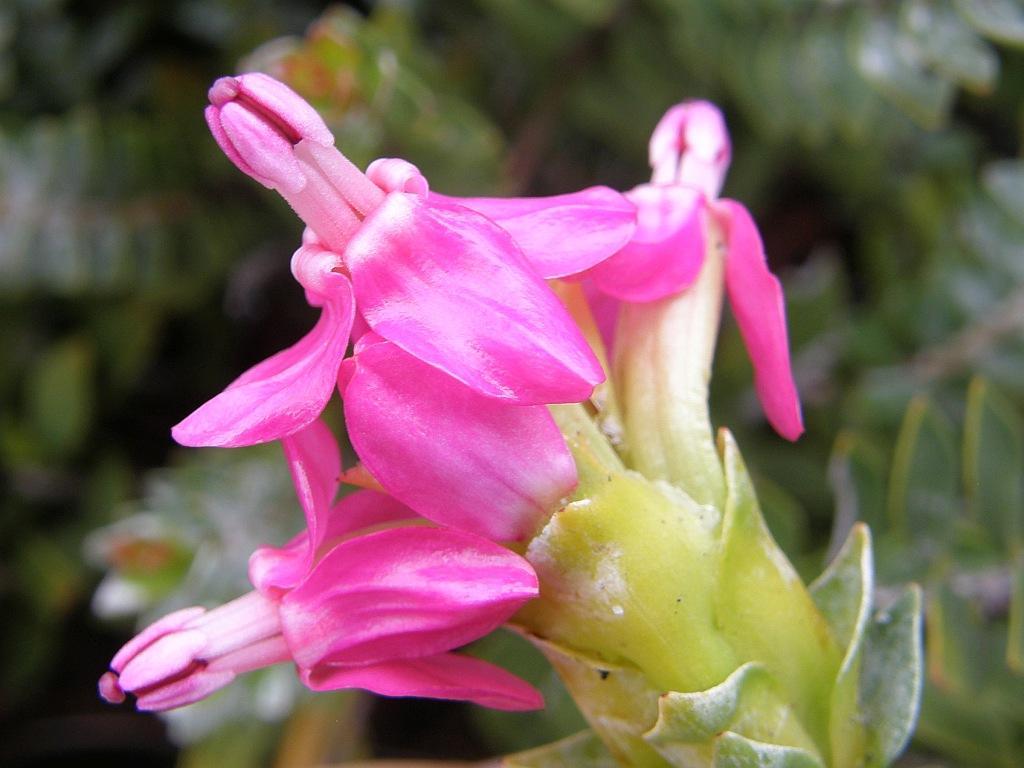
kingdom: Plantae
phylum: Tracheophyta
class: Magnoliopsida
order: Myrtales
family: Penaeaceae
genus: Saltera
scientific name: Saltera sarcocolla
